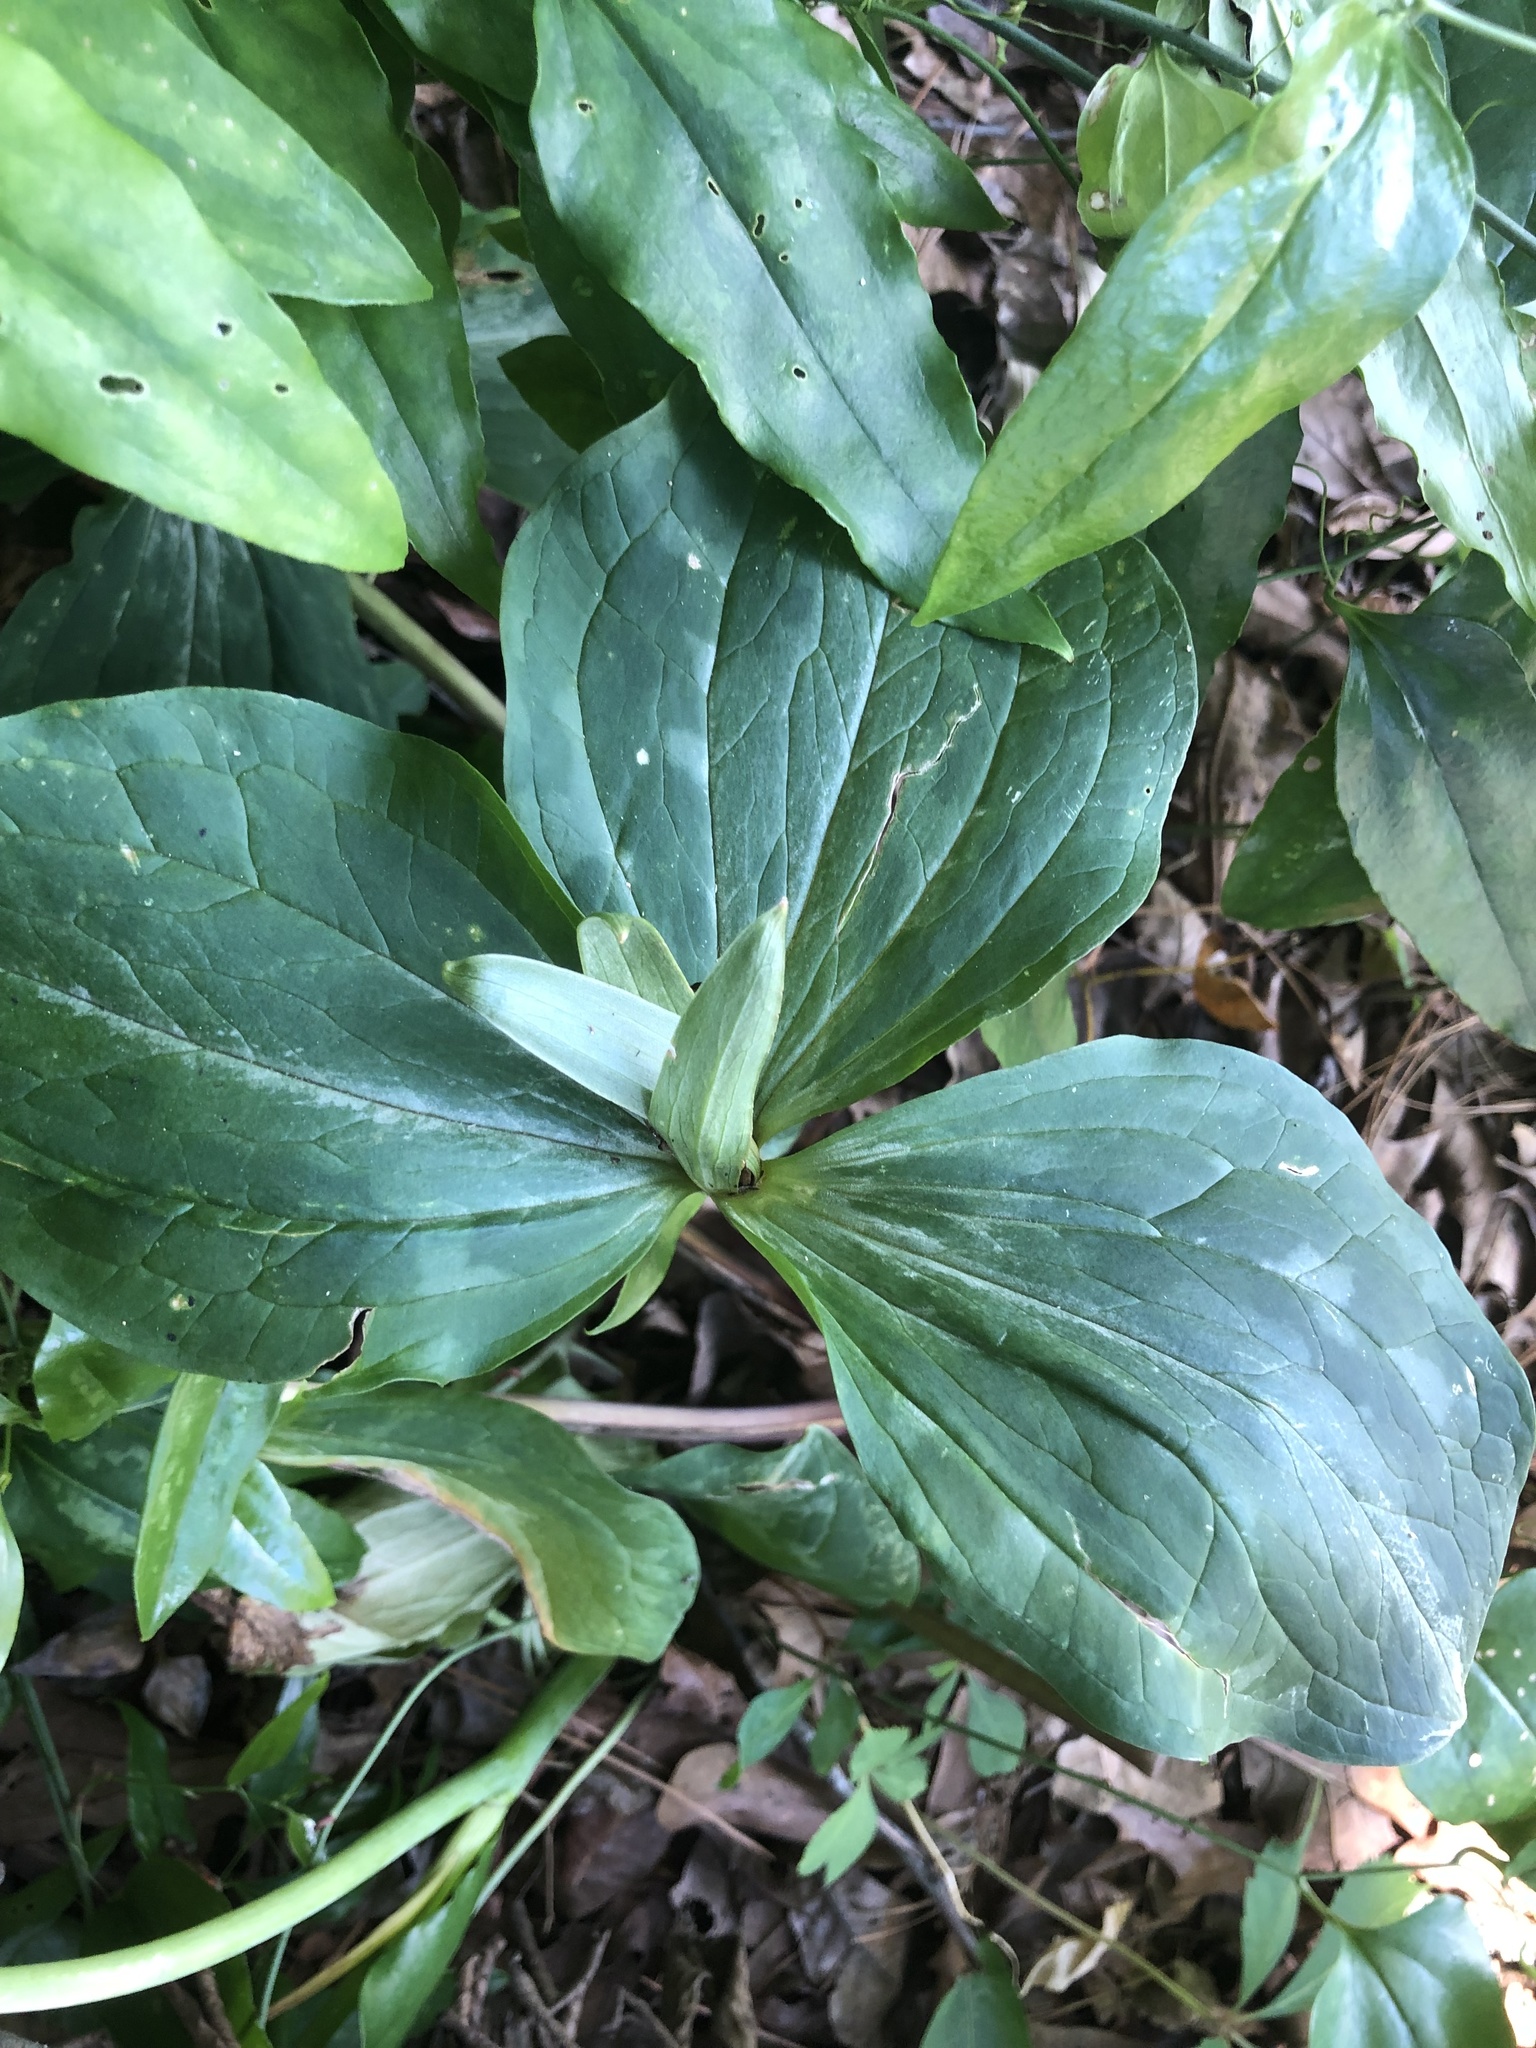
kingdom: Plantae
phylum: Tracheophyta
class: Liliopsida
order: Liliales
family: Melanthiaceae
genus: Trillium
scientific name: Trillium cuneatum
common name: Cuneate trillium
